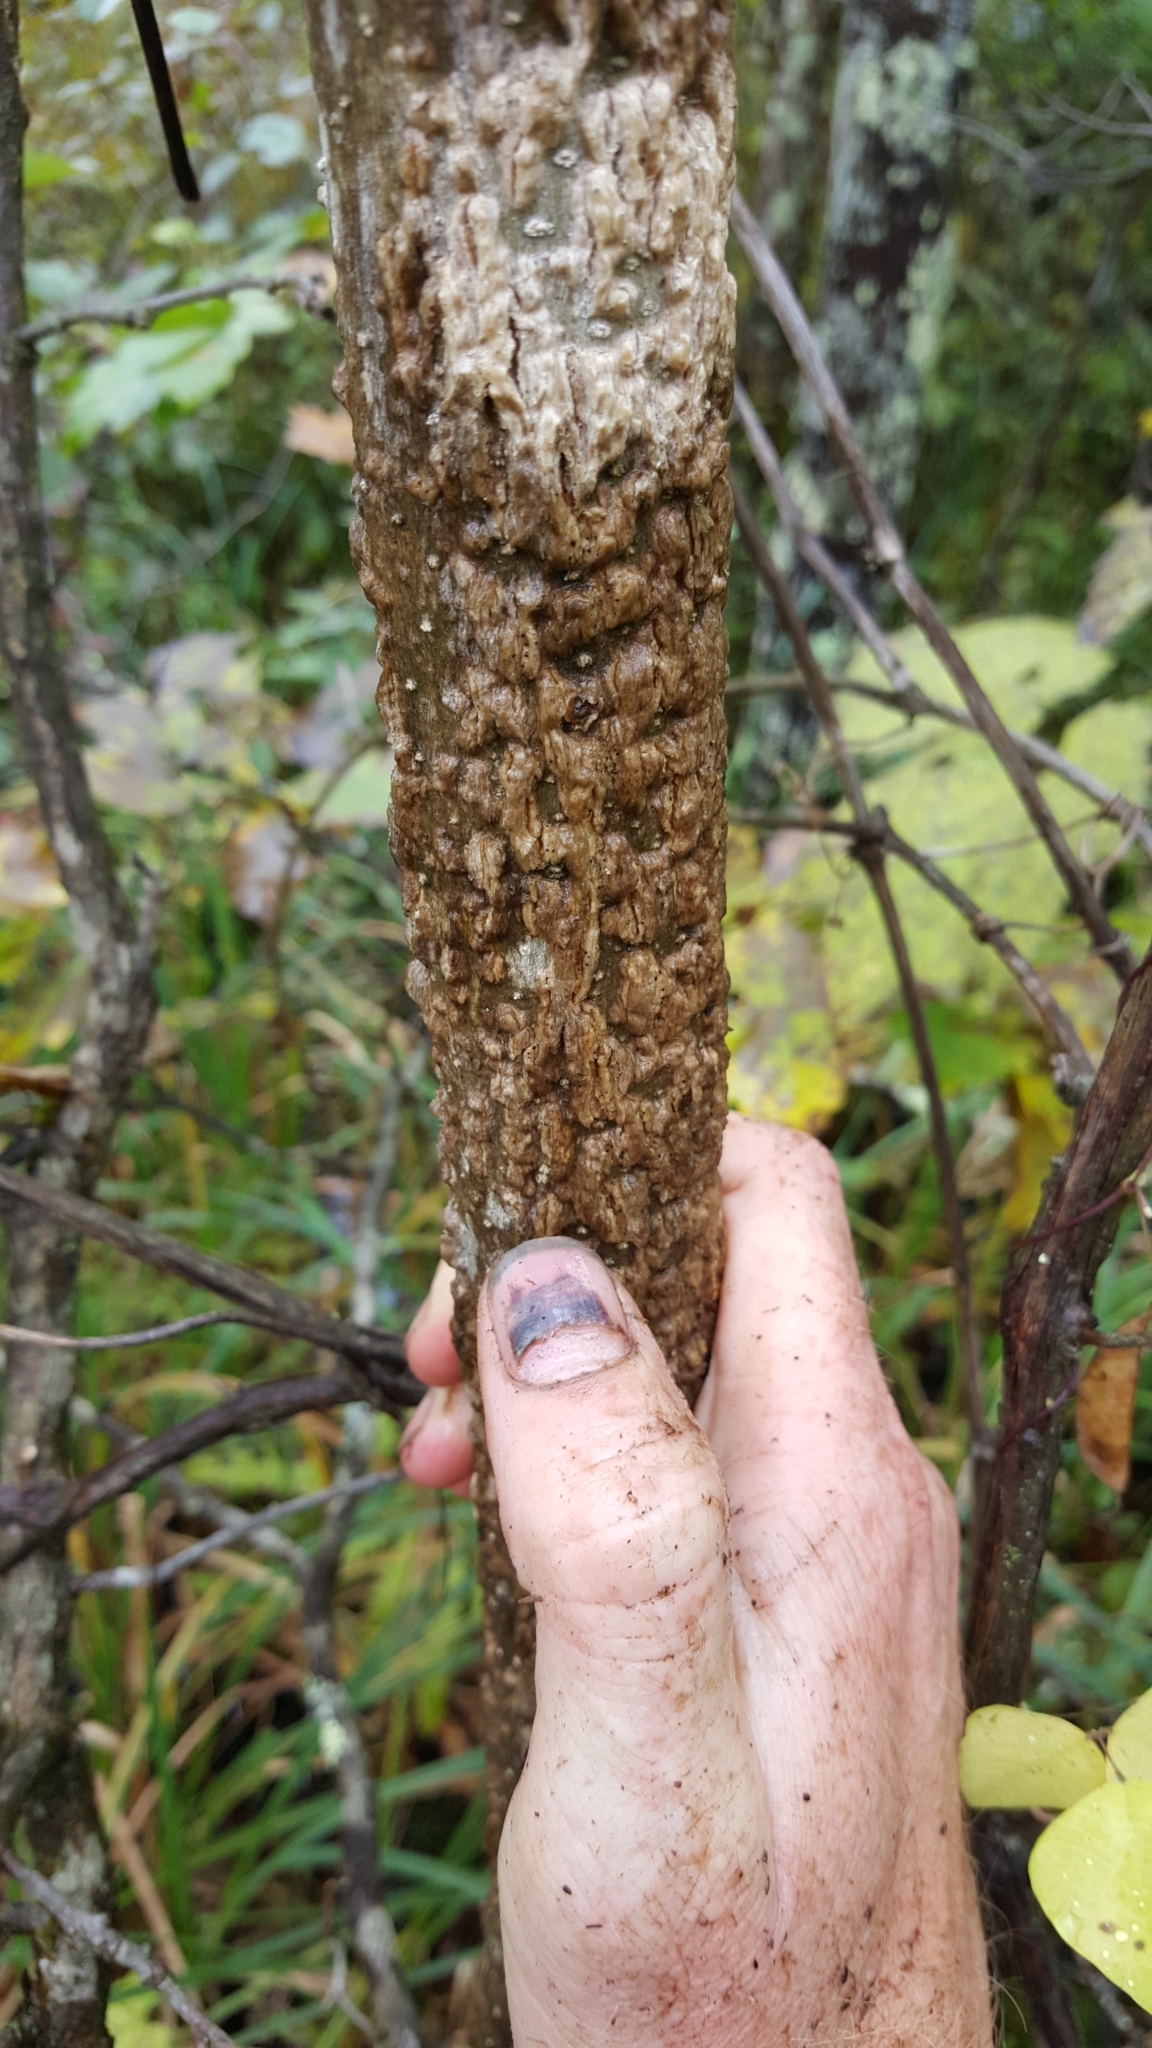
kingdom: Plantae
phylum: Tracheophyta
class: Magnoliopsida
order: Lamiales
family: Oleaceae
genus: Fraxinus
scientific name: Fraxinus nigra
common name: Black ash
